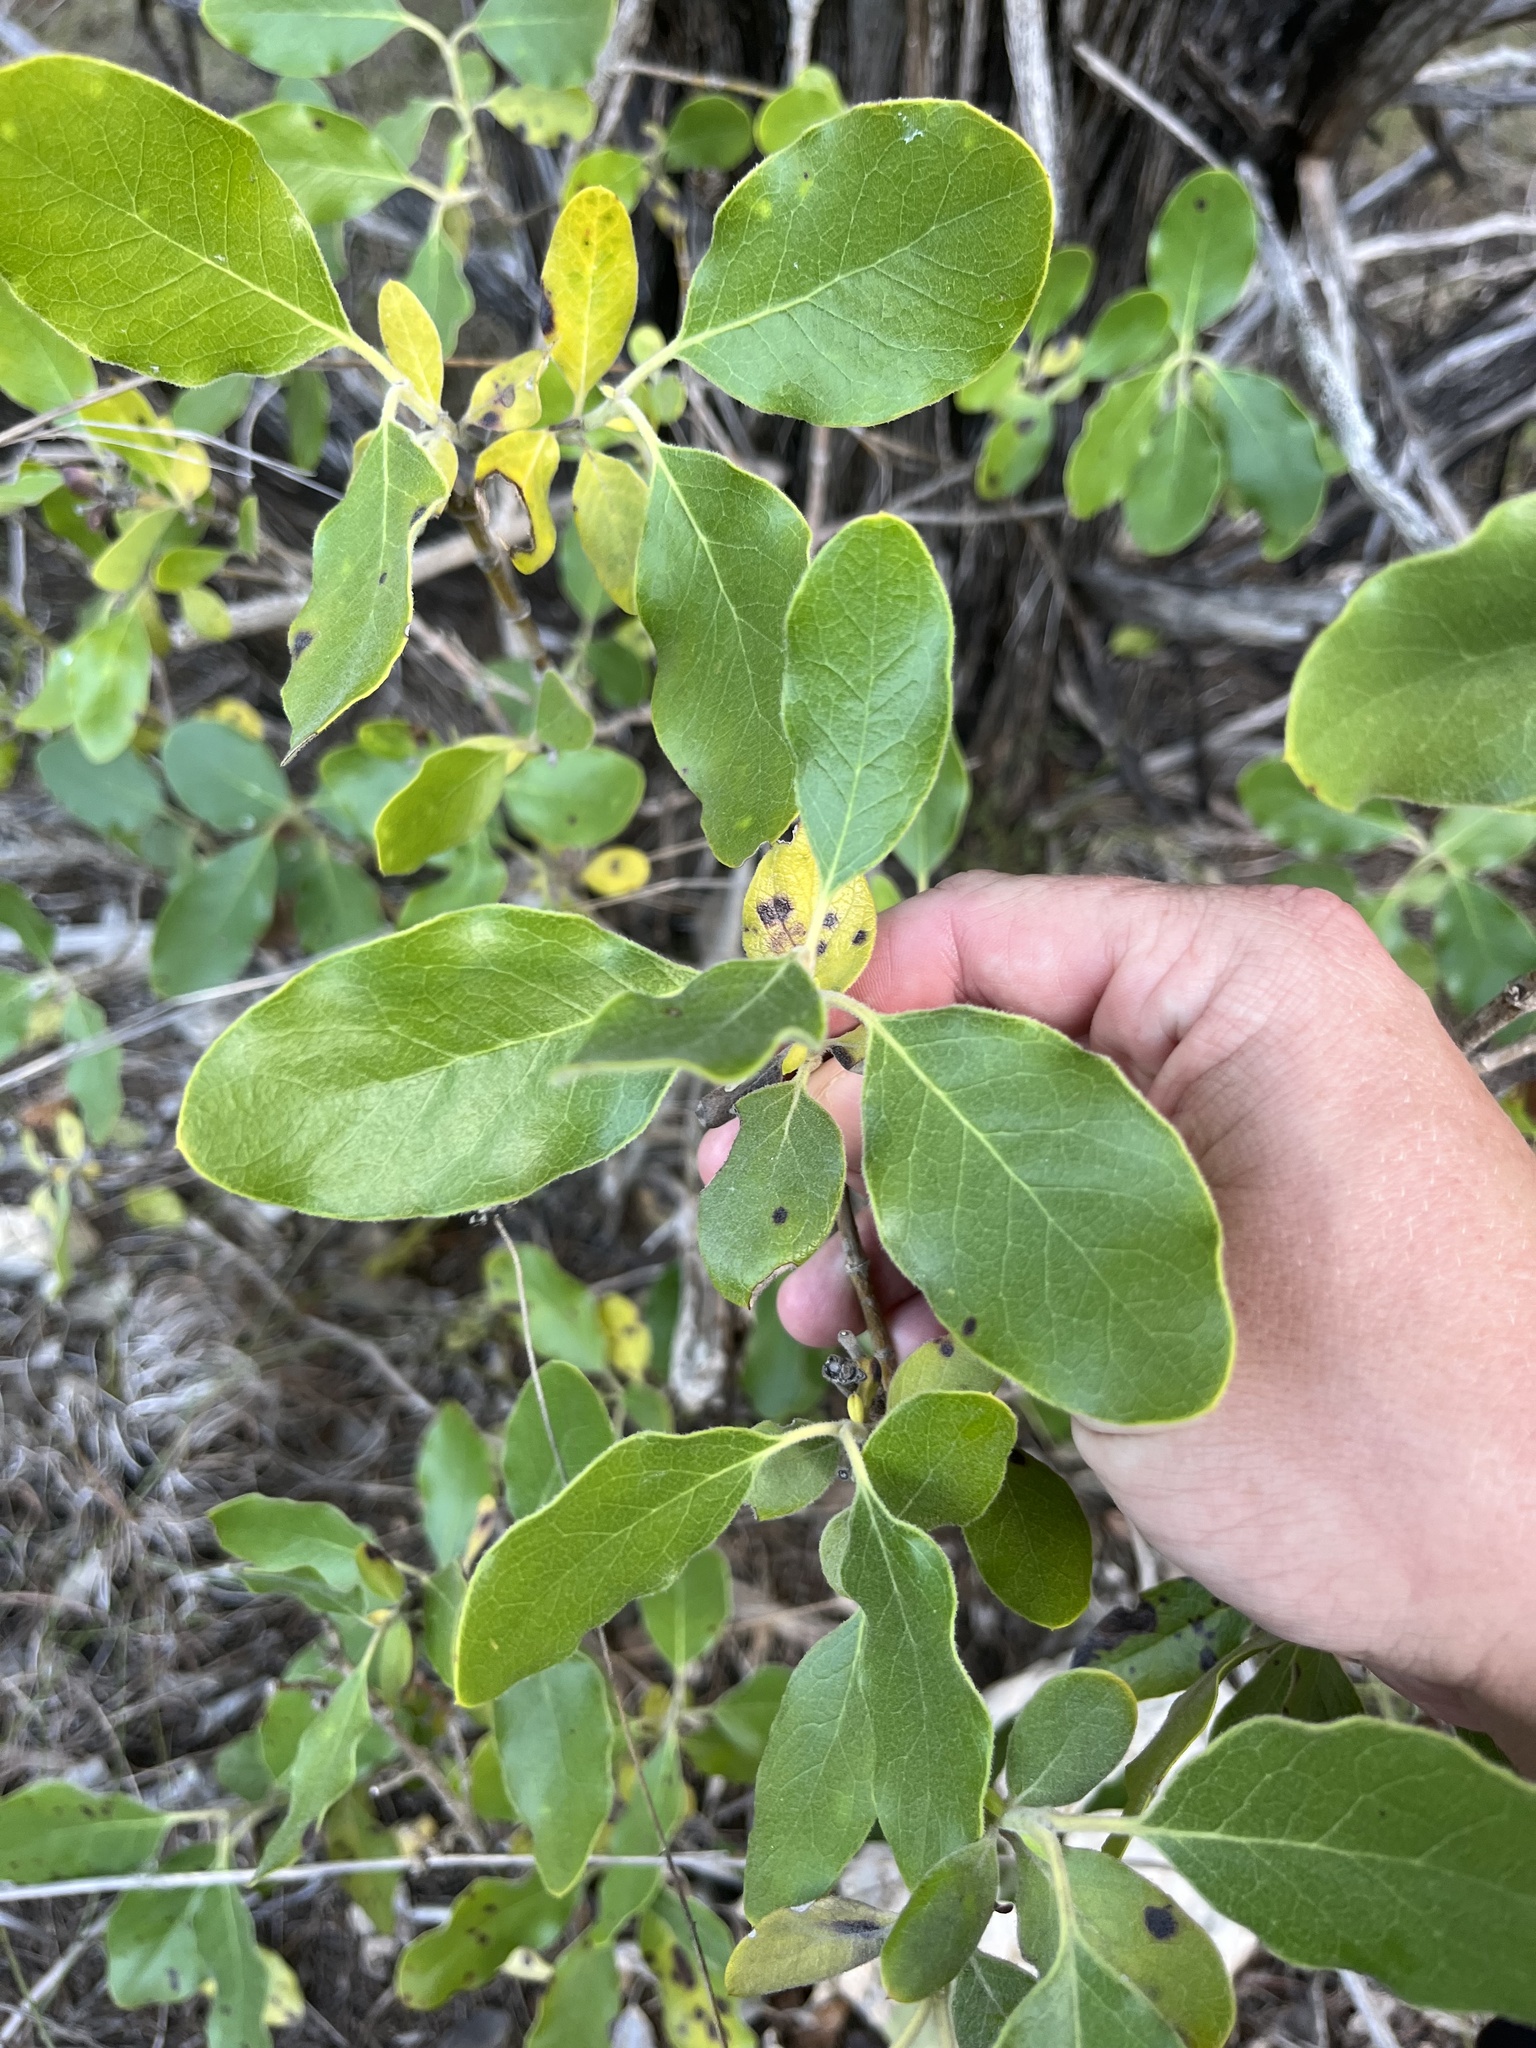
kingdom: Plantae
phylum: Tracheophyta
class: Magnoliopsida
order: Garryales
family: Garryaceae
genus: Garrya
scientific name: Garrya lindheimeri
